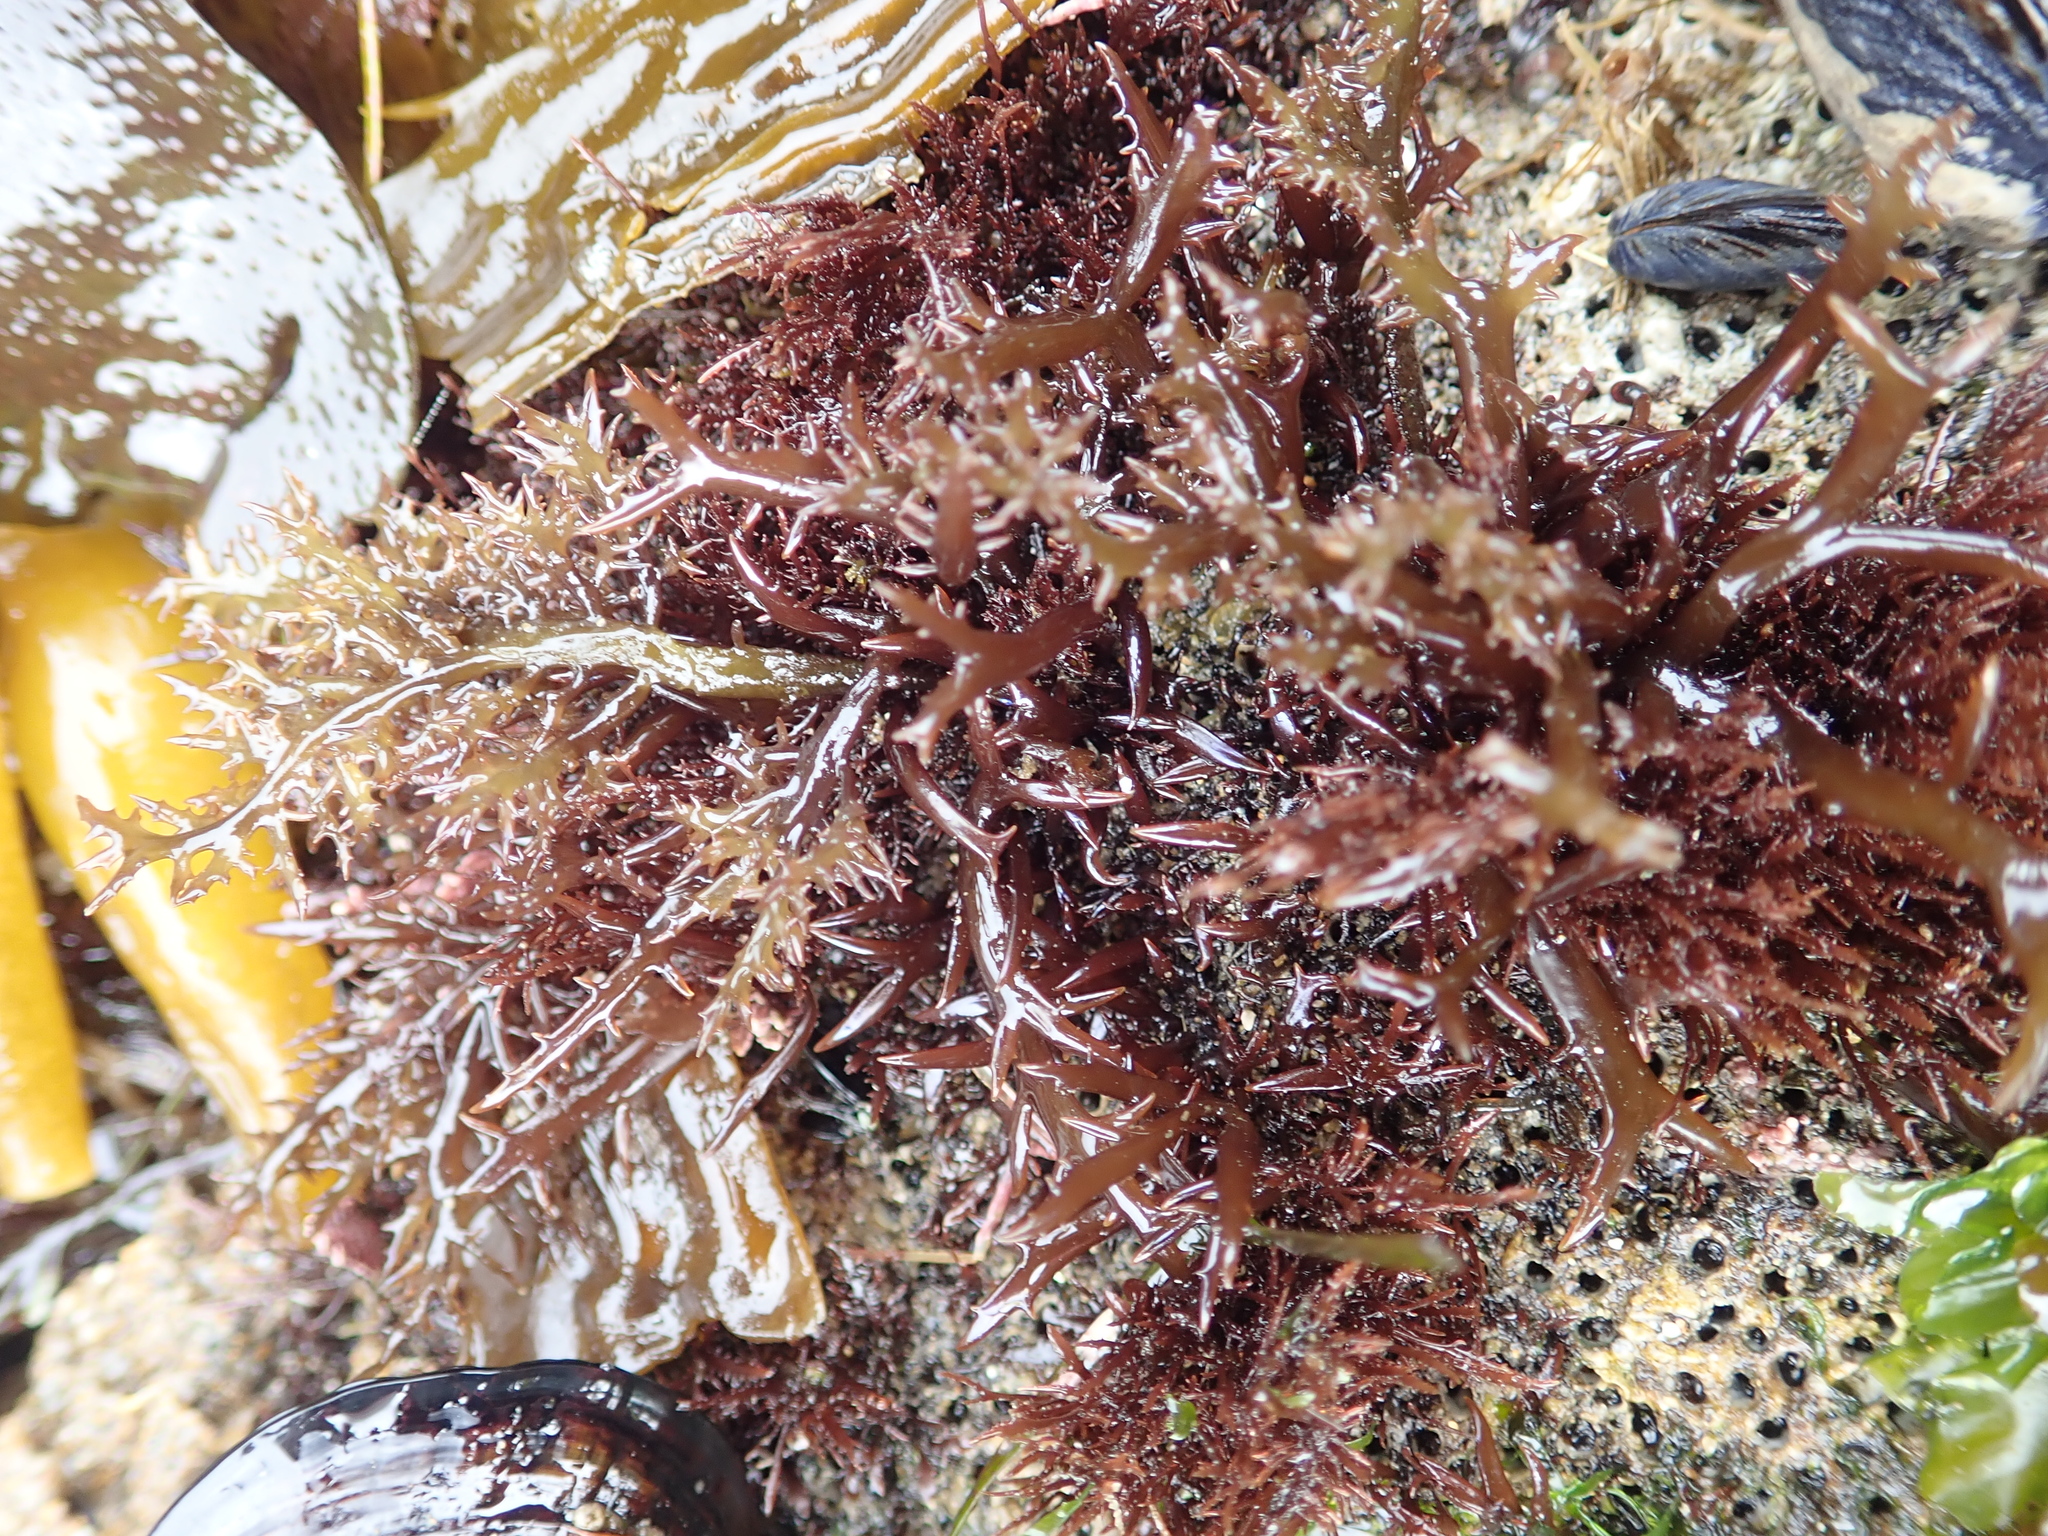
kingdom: Plantae
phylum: Rhodophyta
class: Florideophyceae
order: Gigartinales
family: Gigartinaceae
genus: Chondracanthus
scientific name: Chondracanthus canaliculatus
